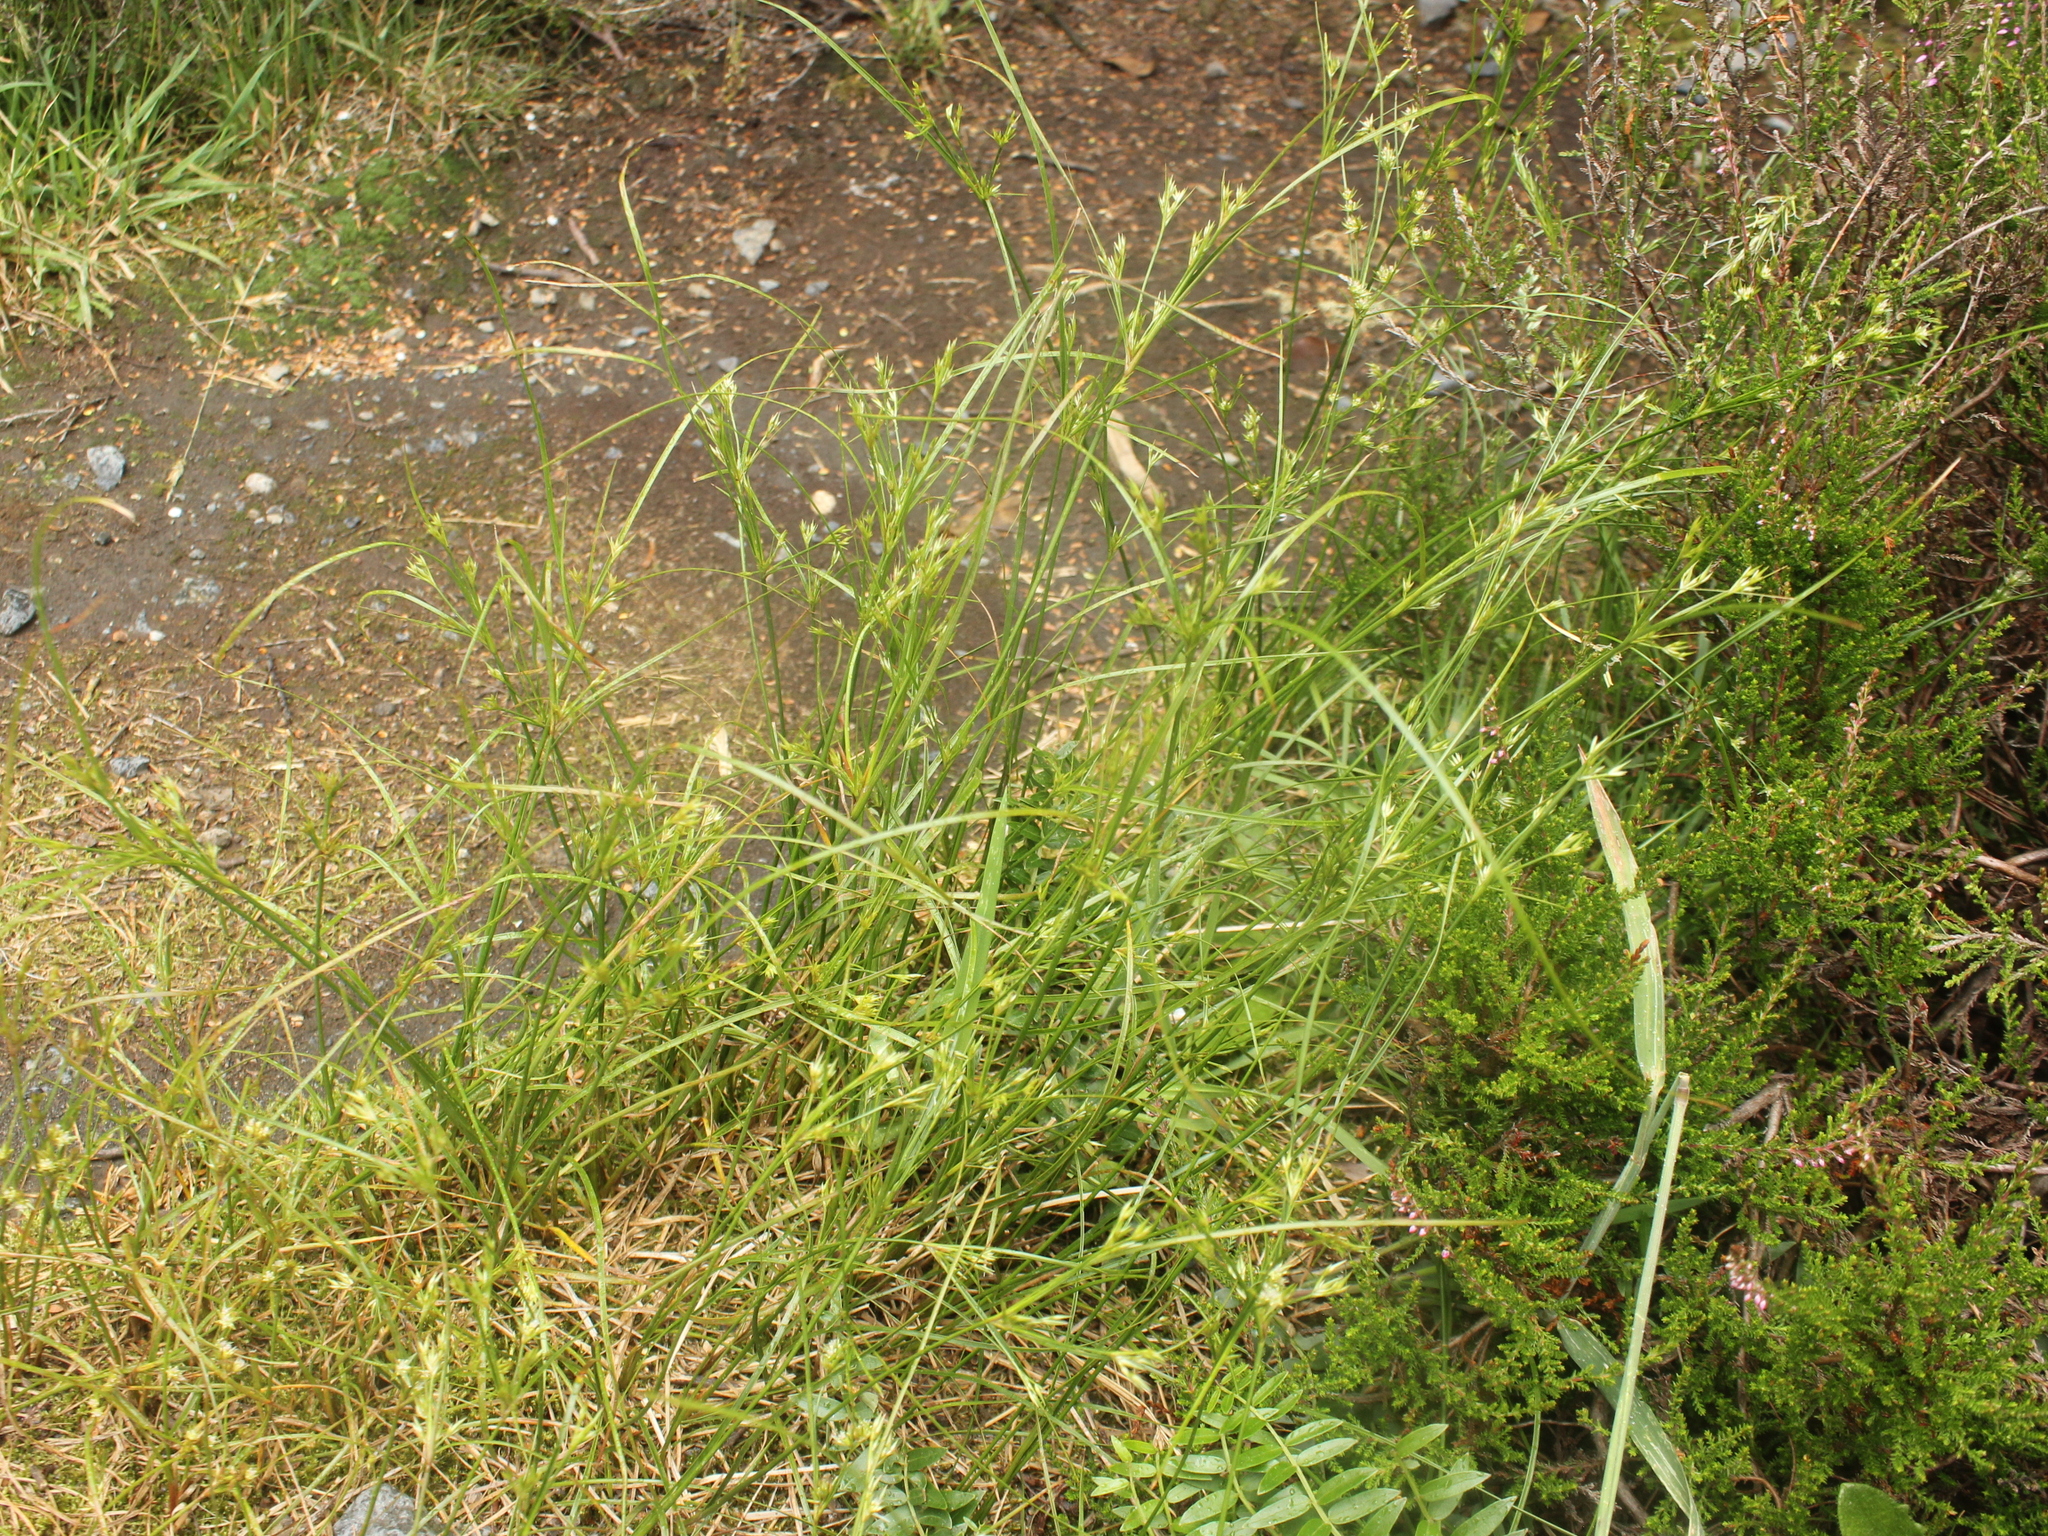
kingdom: Plantae
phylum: Tracheophyta
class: Liliopsida
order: Poales
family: Juncaceae
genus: Juncus
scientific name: Juncus tenuis
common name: Slender rush
